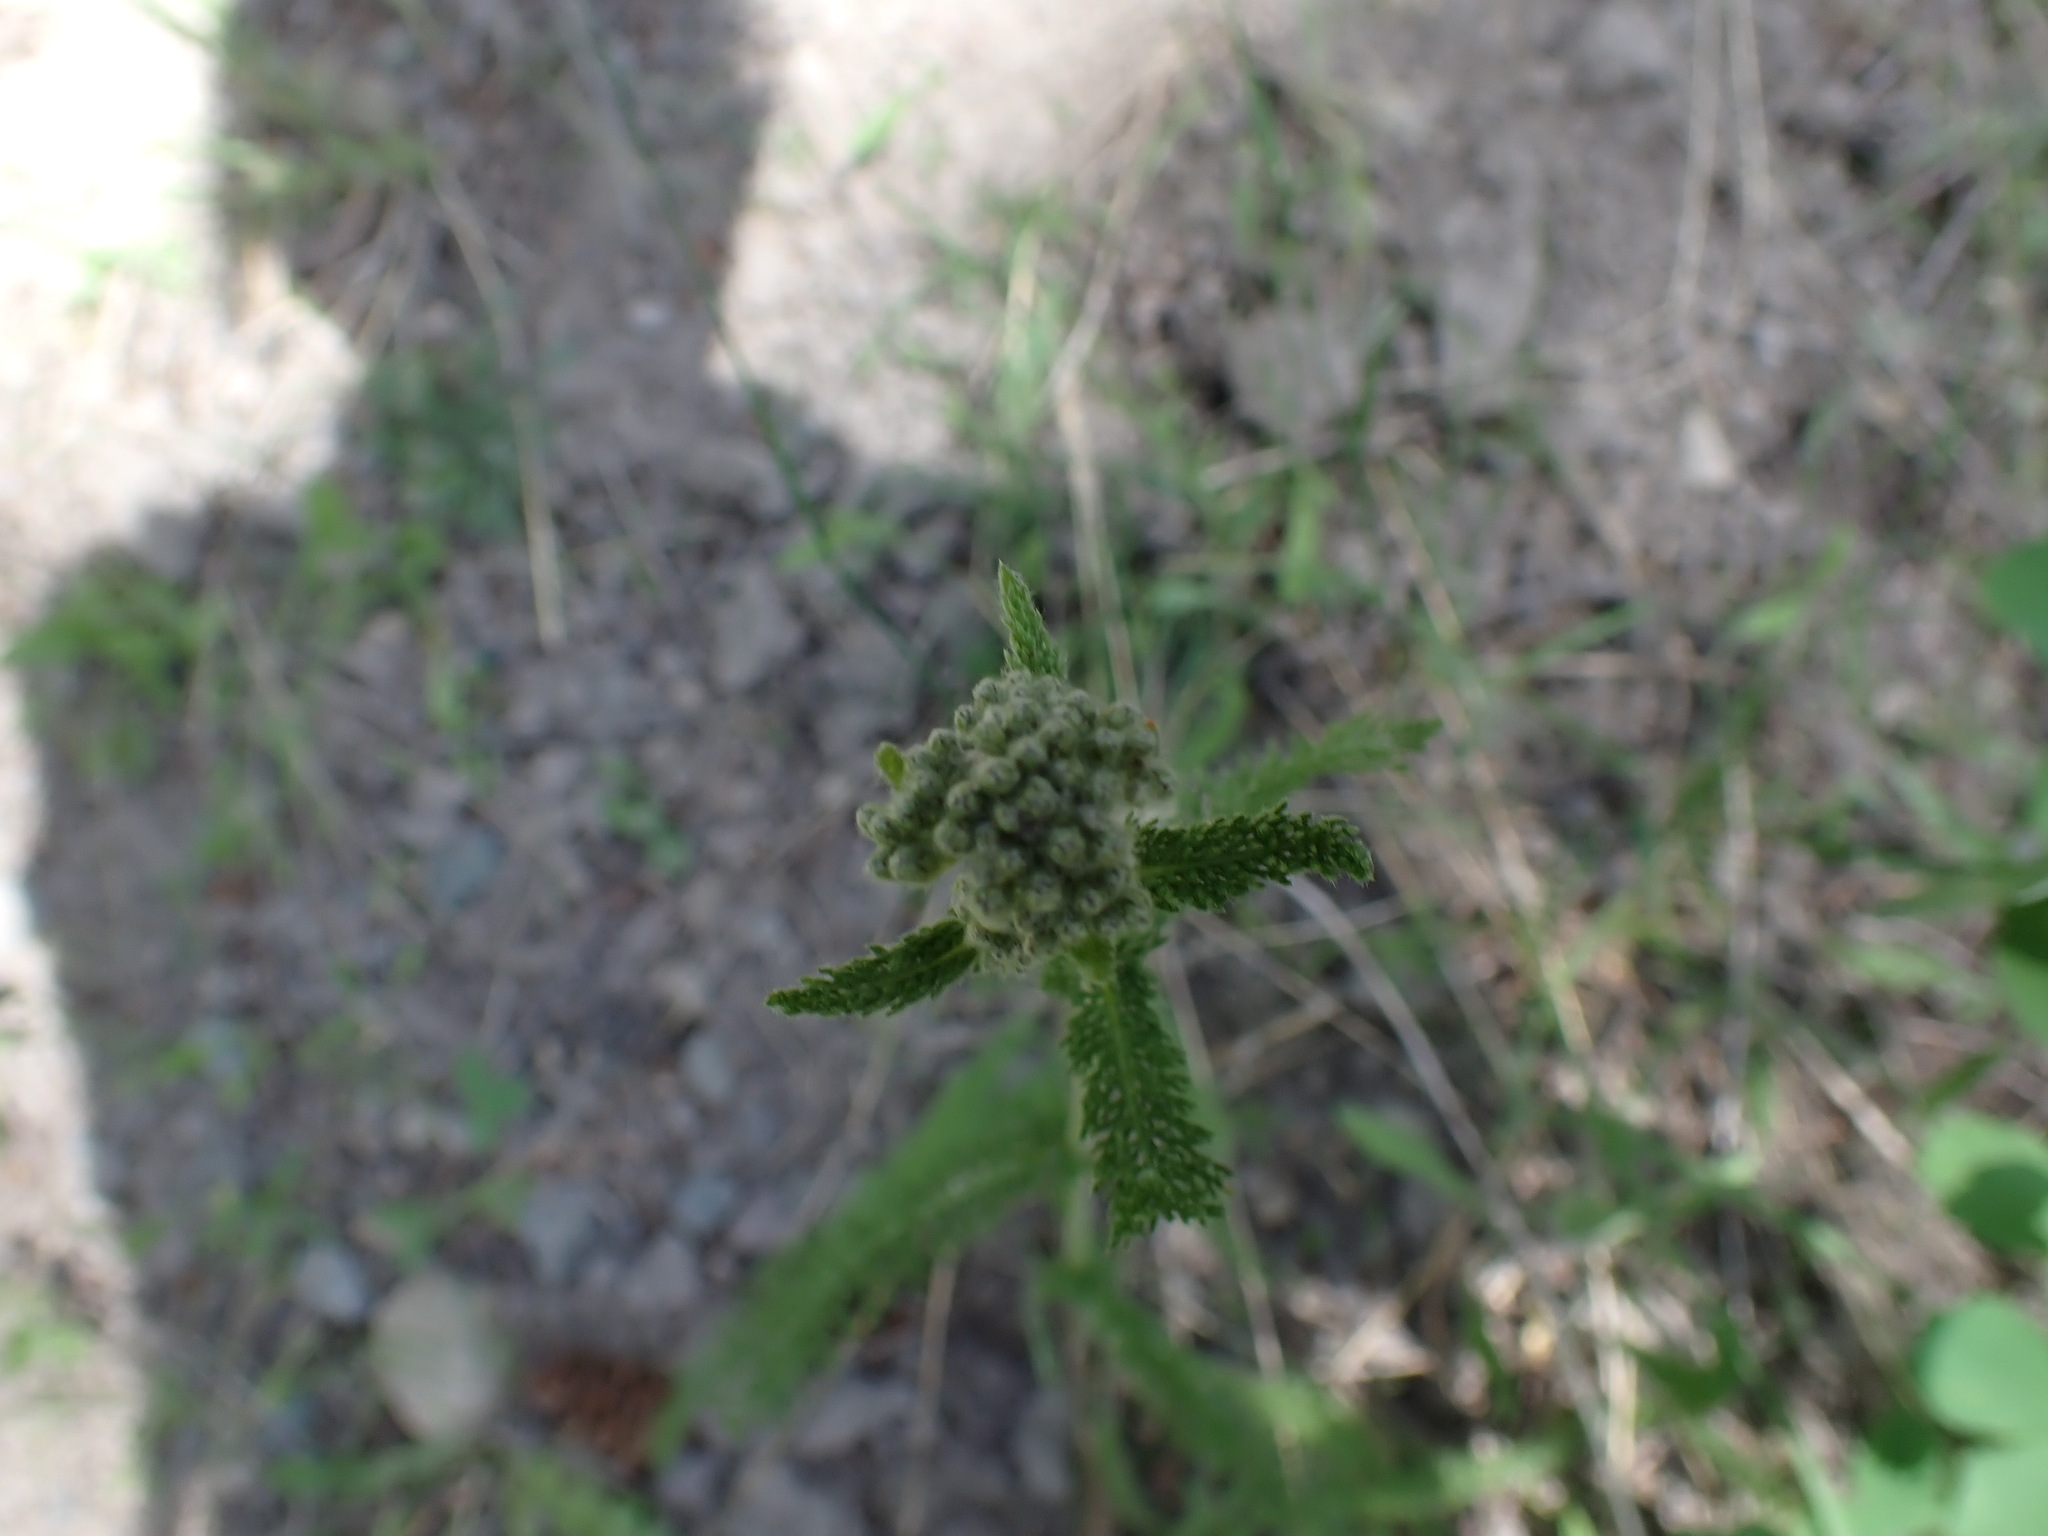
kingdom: Plantae
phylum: Tracheophyta
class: Magnoliopsida
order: Asterales
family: Asteraceae
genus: Achillea
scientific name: Achillea millefolium
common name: Yarrow
